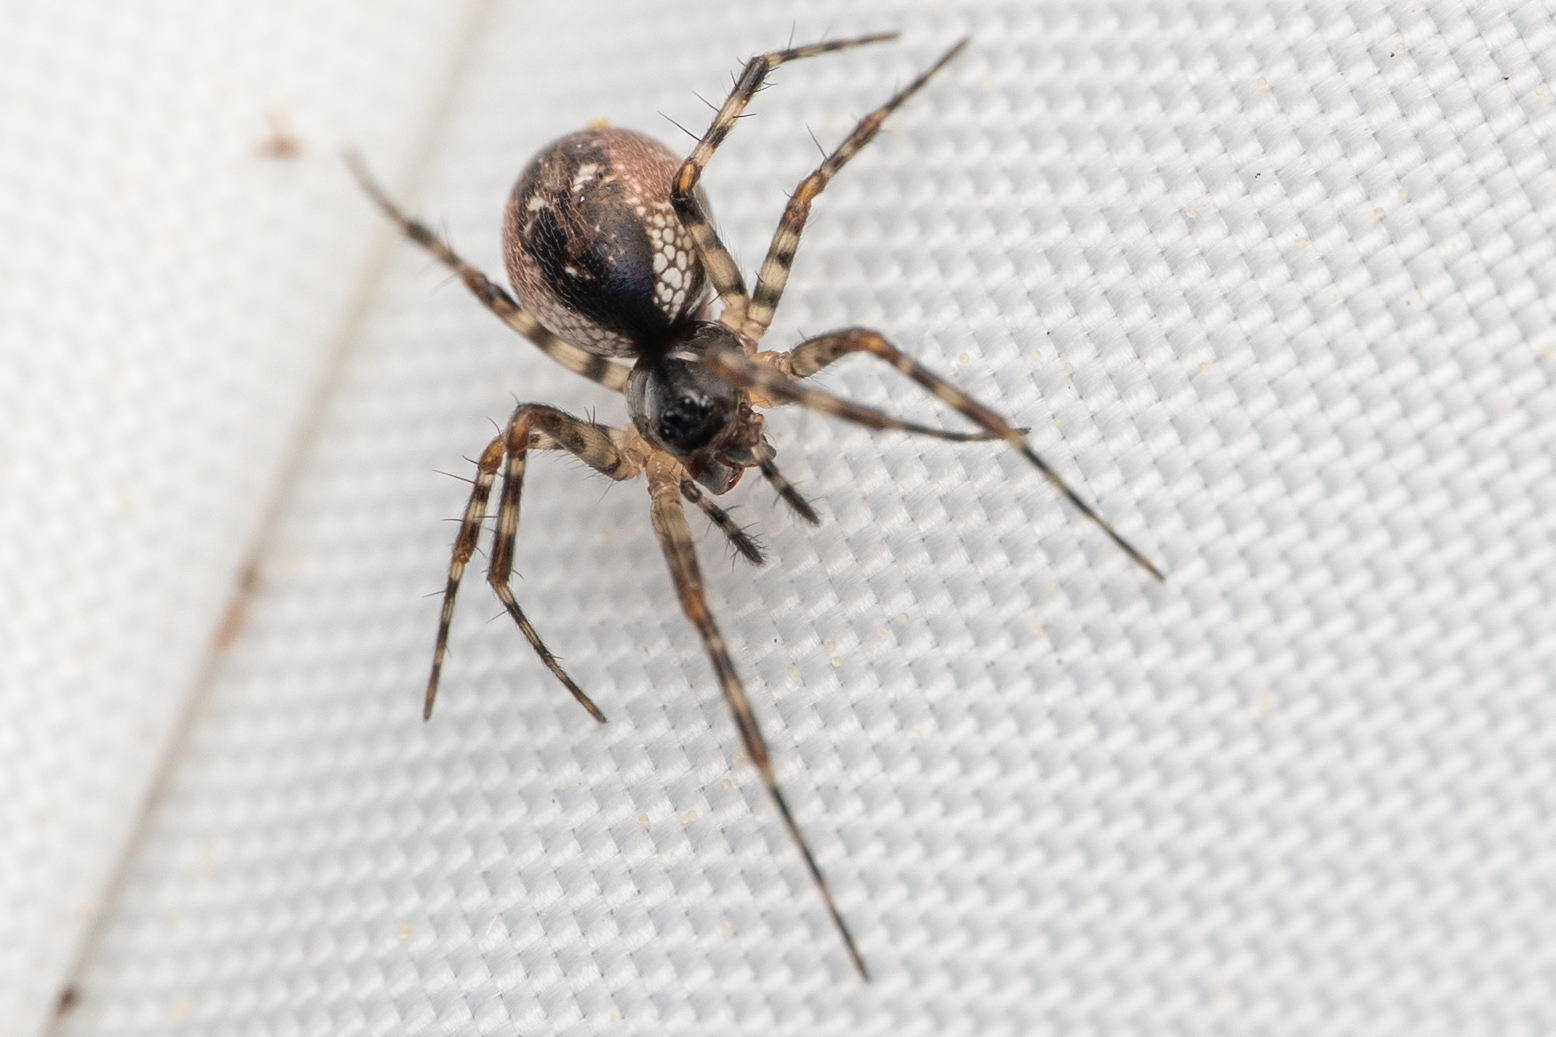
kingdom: Animalia
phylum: Arthropoda
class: Arachnida
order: Araneae
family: Linyphiidae
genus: Neriene
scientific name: Neriene digna
